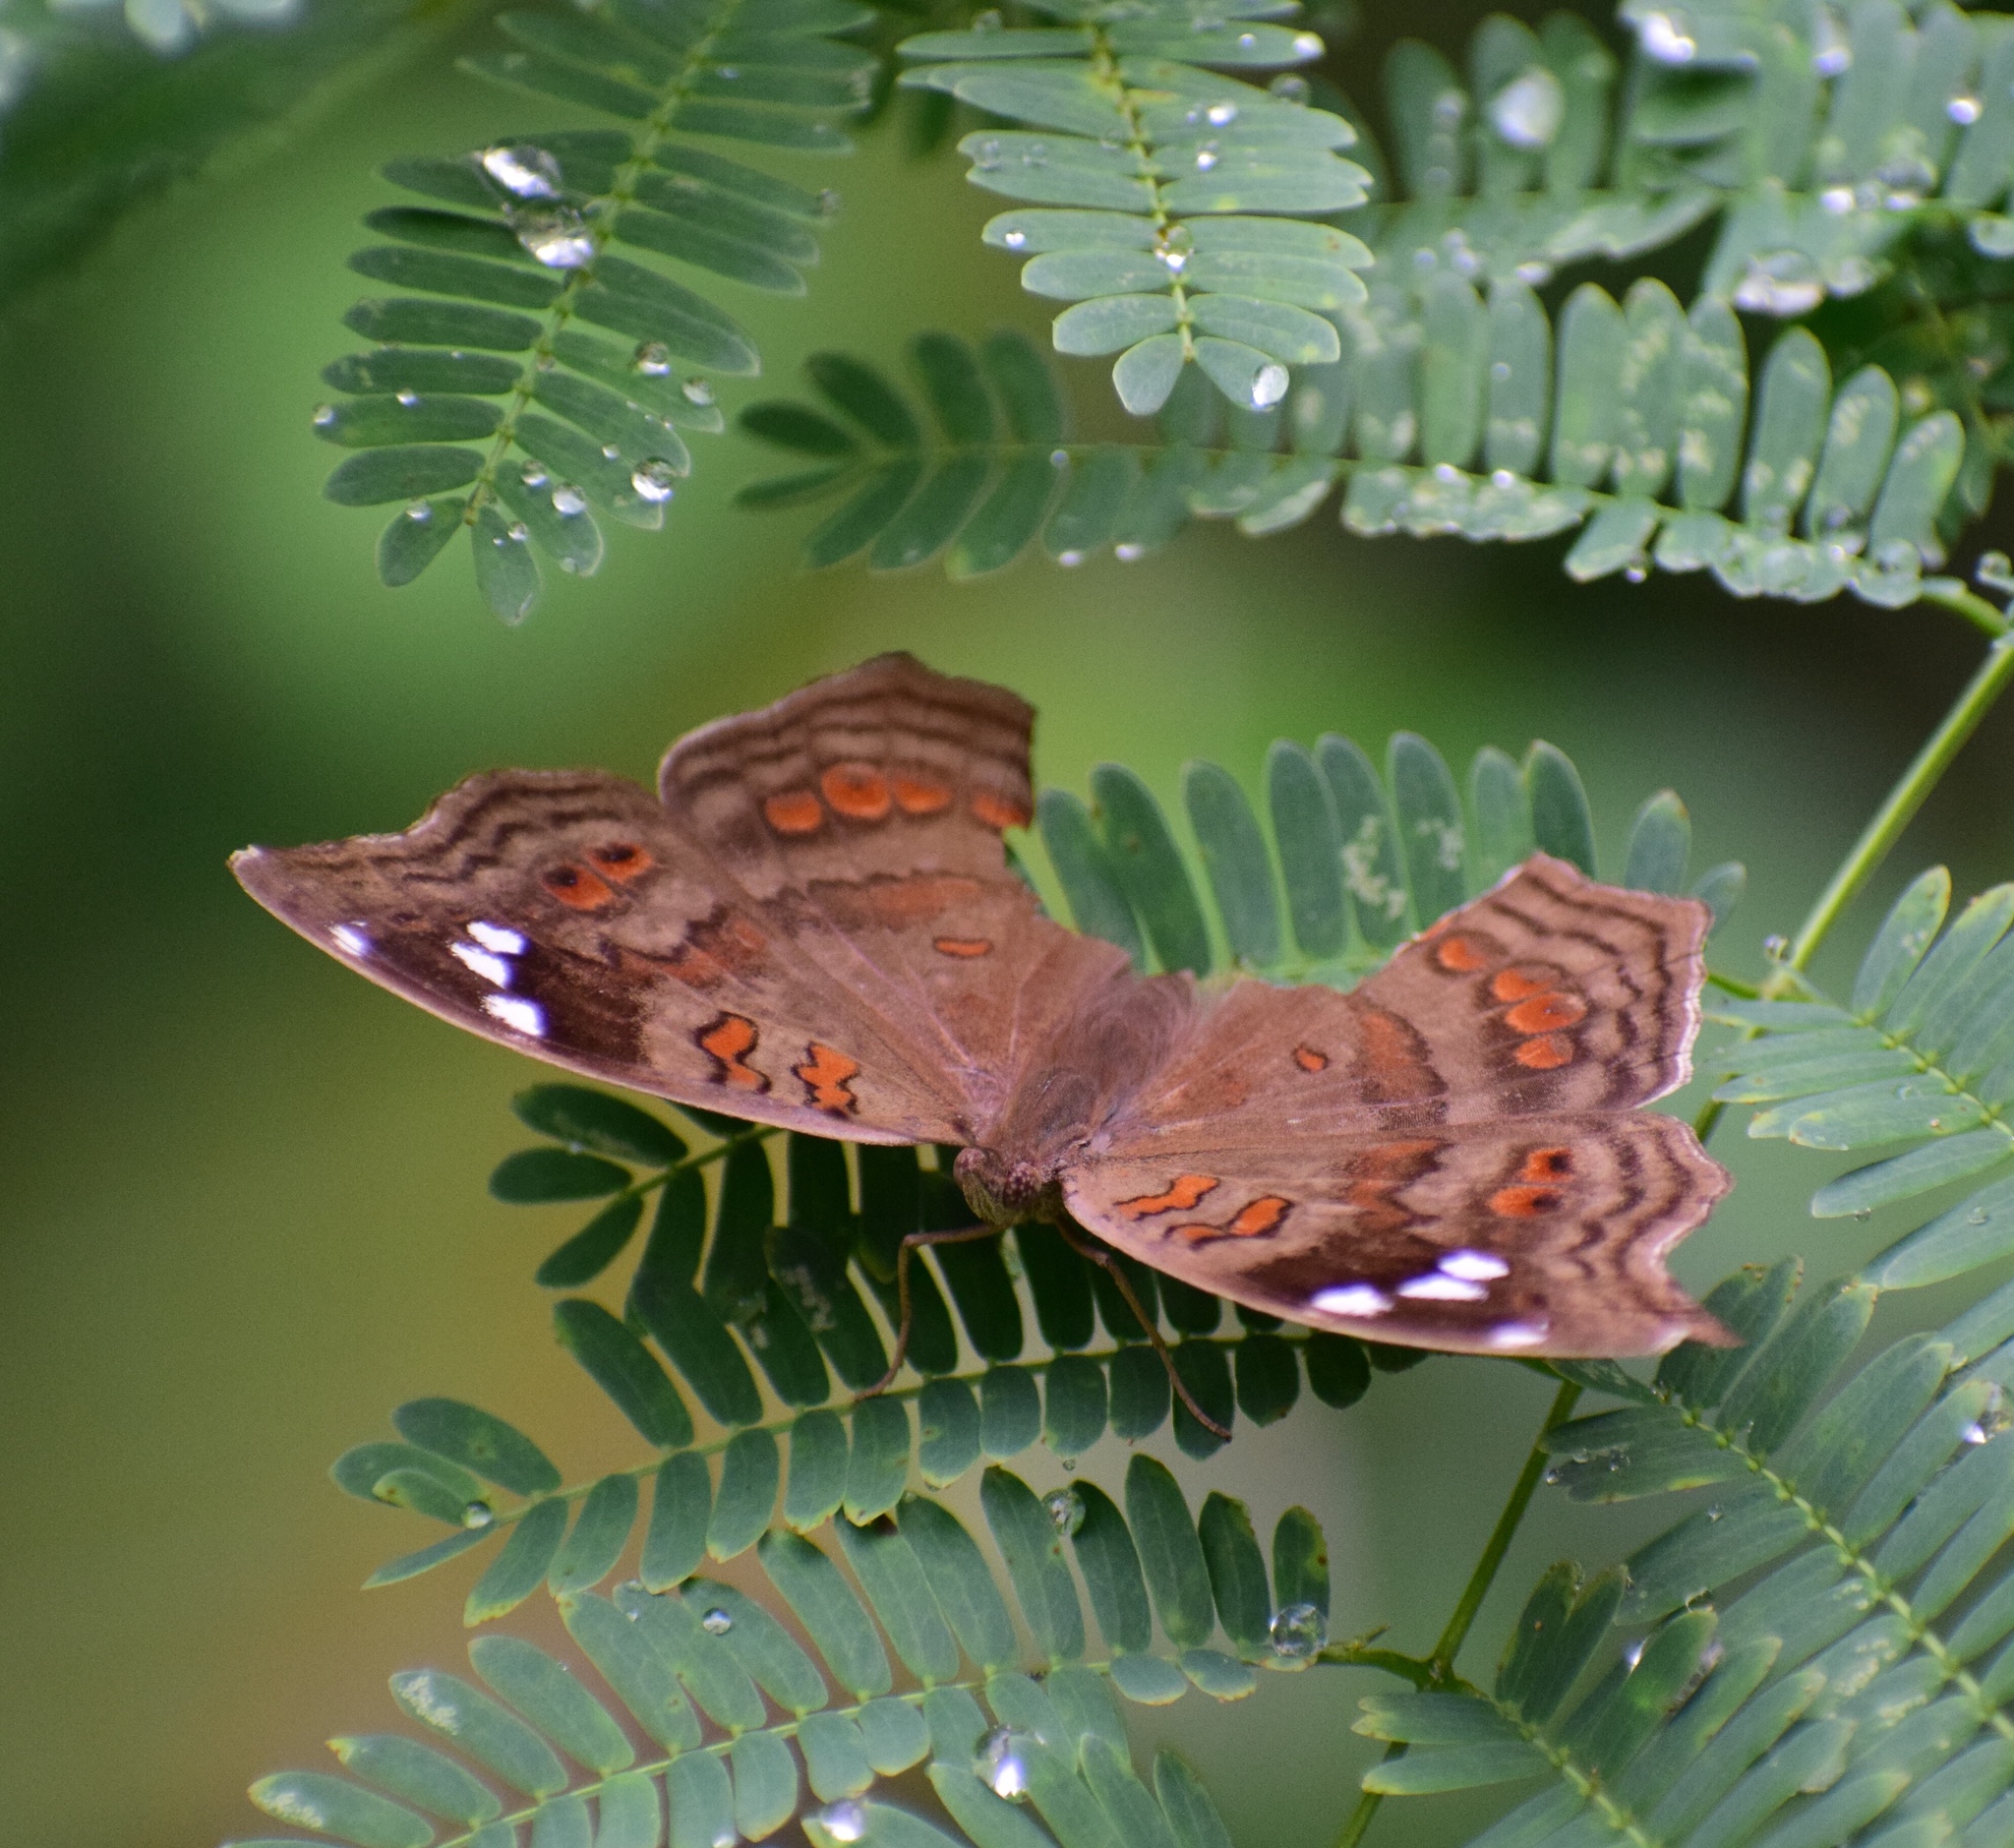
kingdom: Animalia
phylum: Arthropoda
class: Insecta
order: Lepidoptera
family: Nymphalidae
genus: Junonia
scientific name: Junonia natalica
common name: Brown pansy
